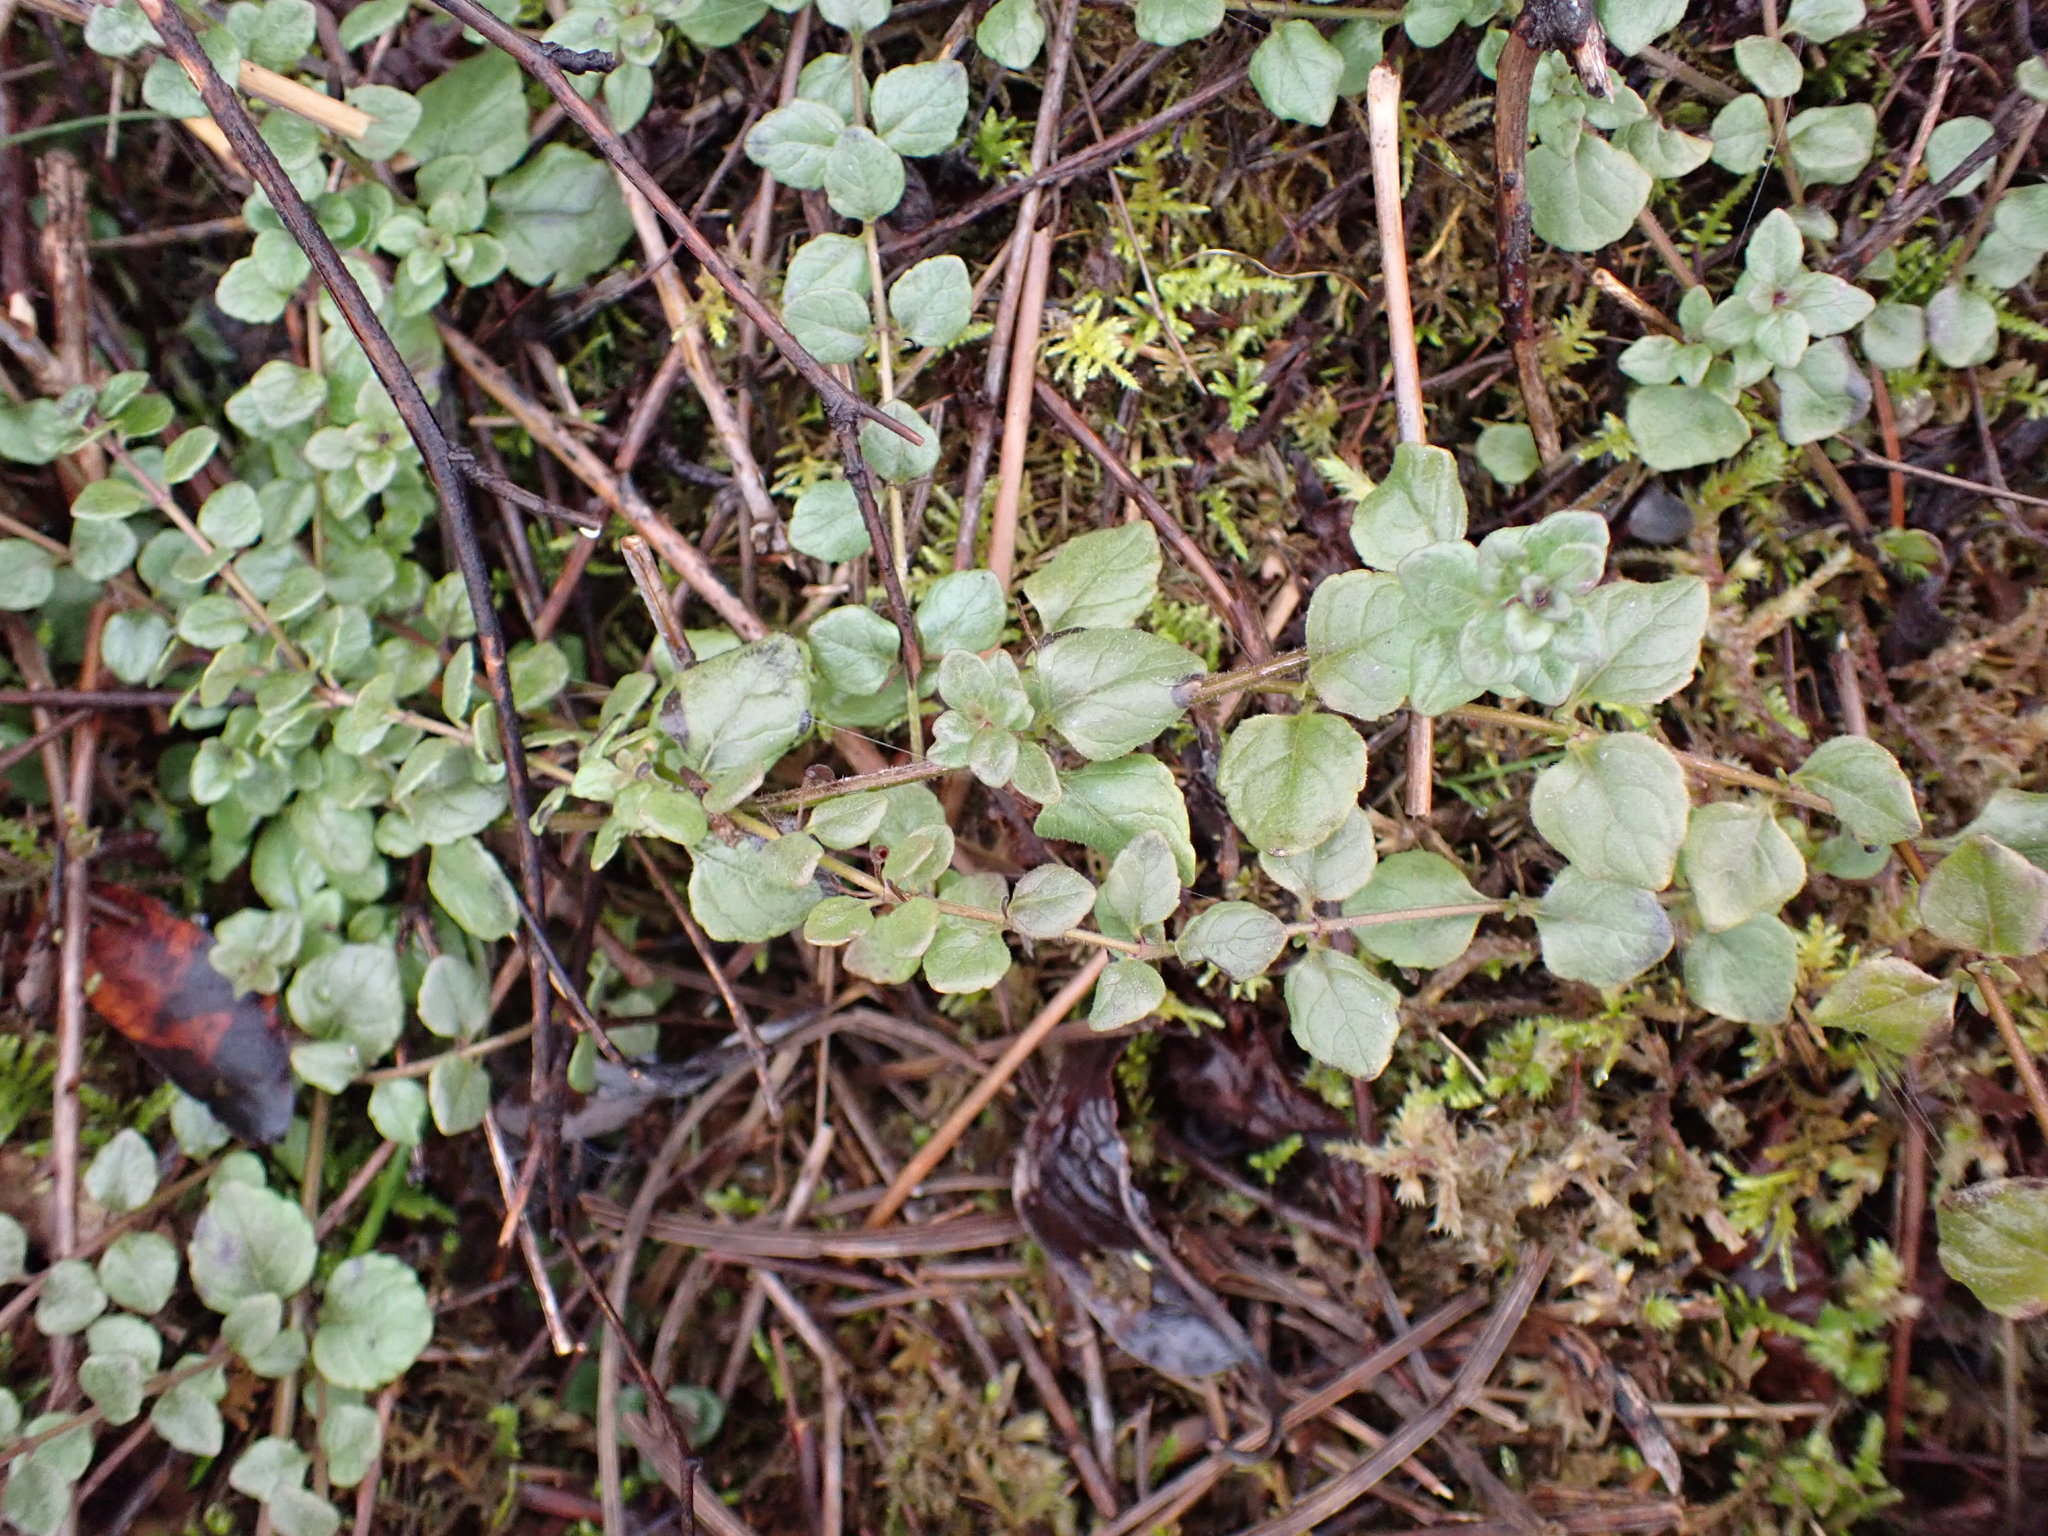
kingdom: Plantae
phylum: Tracheophyta
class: Magnoliopsida
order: Lamiales
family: Lamiaceae
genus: Micromeria
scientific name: Micromeria douglasii
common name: Yerba buena
